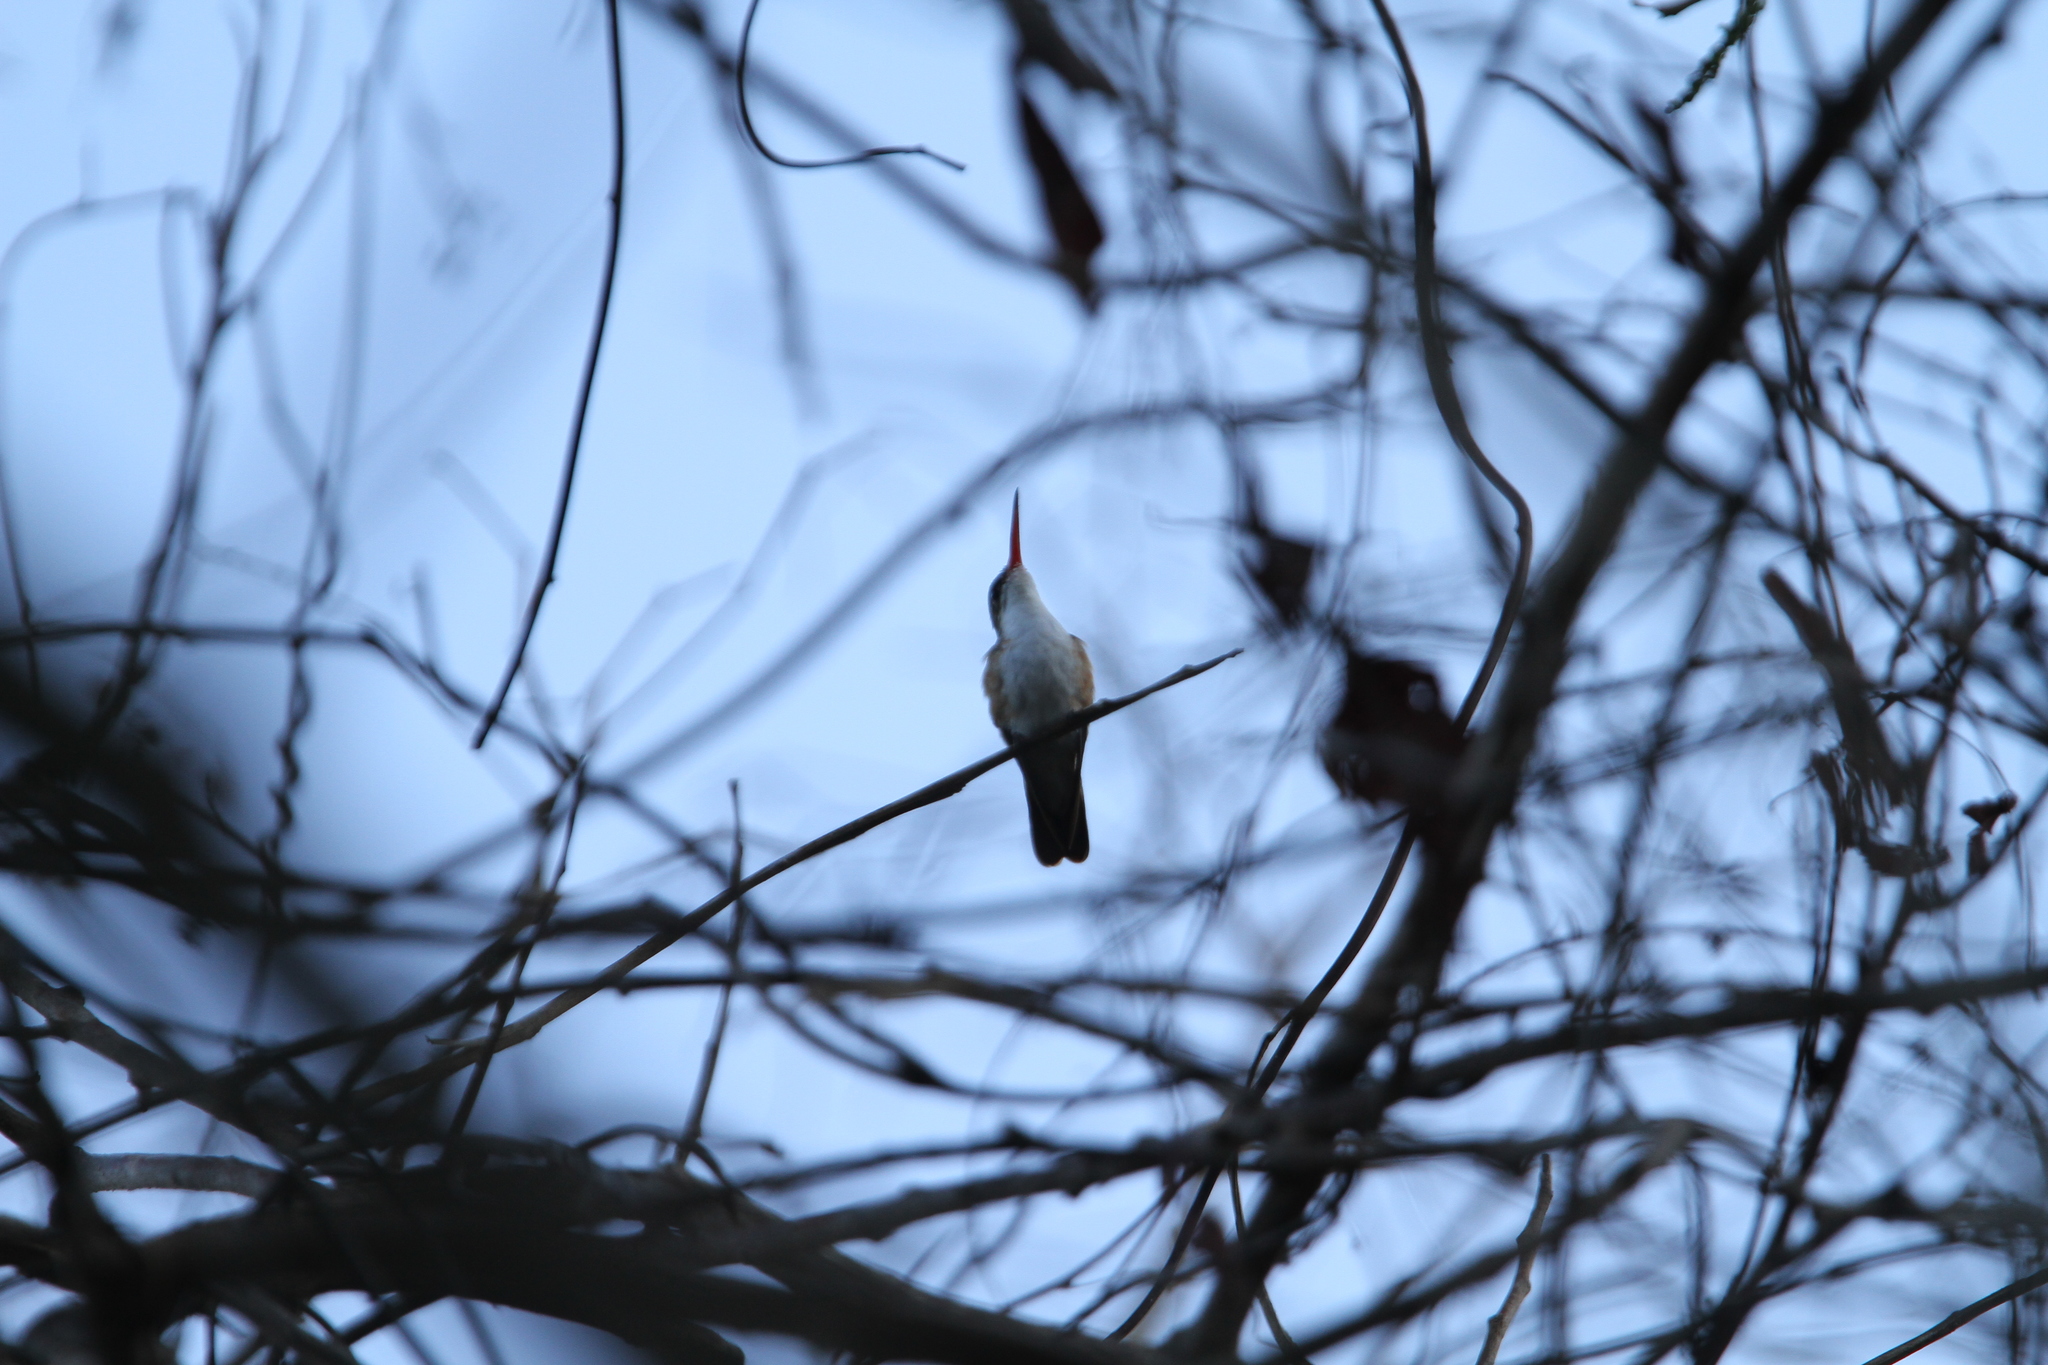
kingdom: Animalia
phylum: Chordata
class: Aves
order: Apodiformes
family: Trochilidae
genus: Leucolia
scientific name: Leucolia viridifrons
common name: Green-fronted hummingbird
